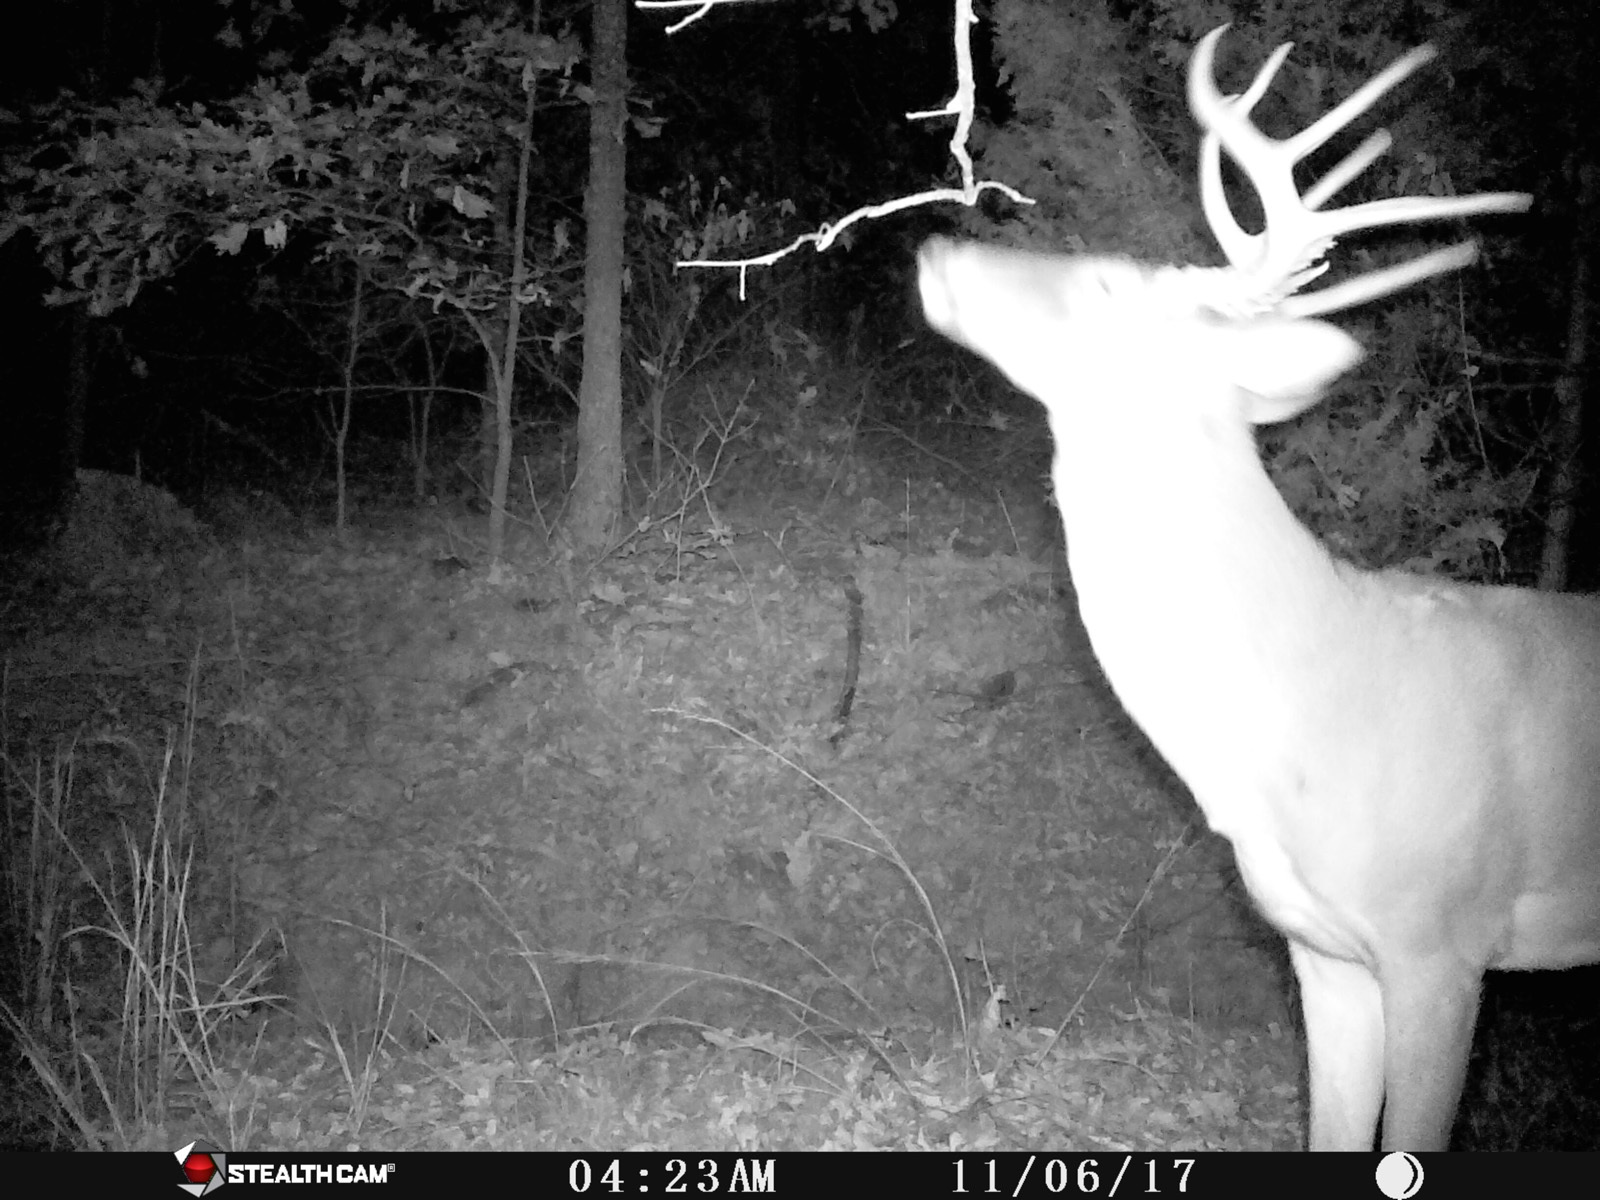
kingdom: Animalia
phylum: Chordata
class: Mammalia
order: Artiodactyla
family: Cervidae
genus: Odocoileus
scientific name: Odocoileus virginianus
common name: White-tailed deer
